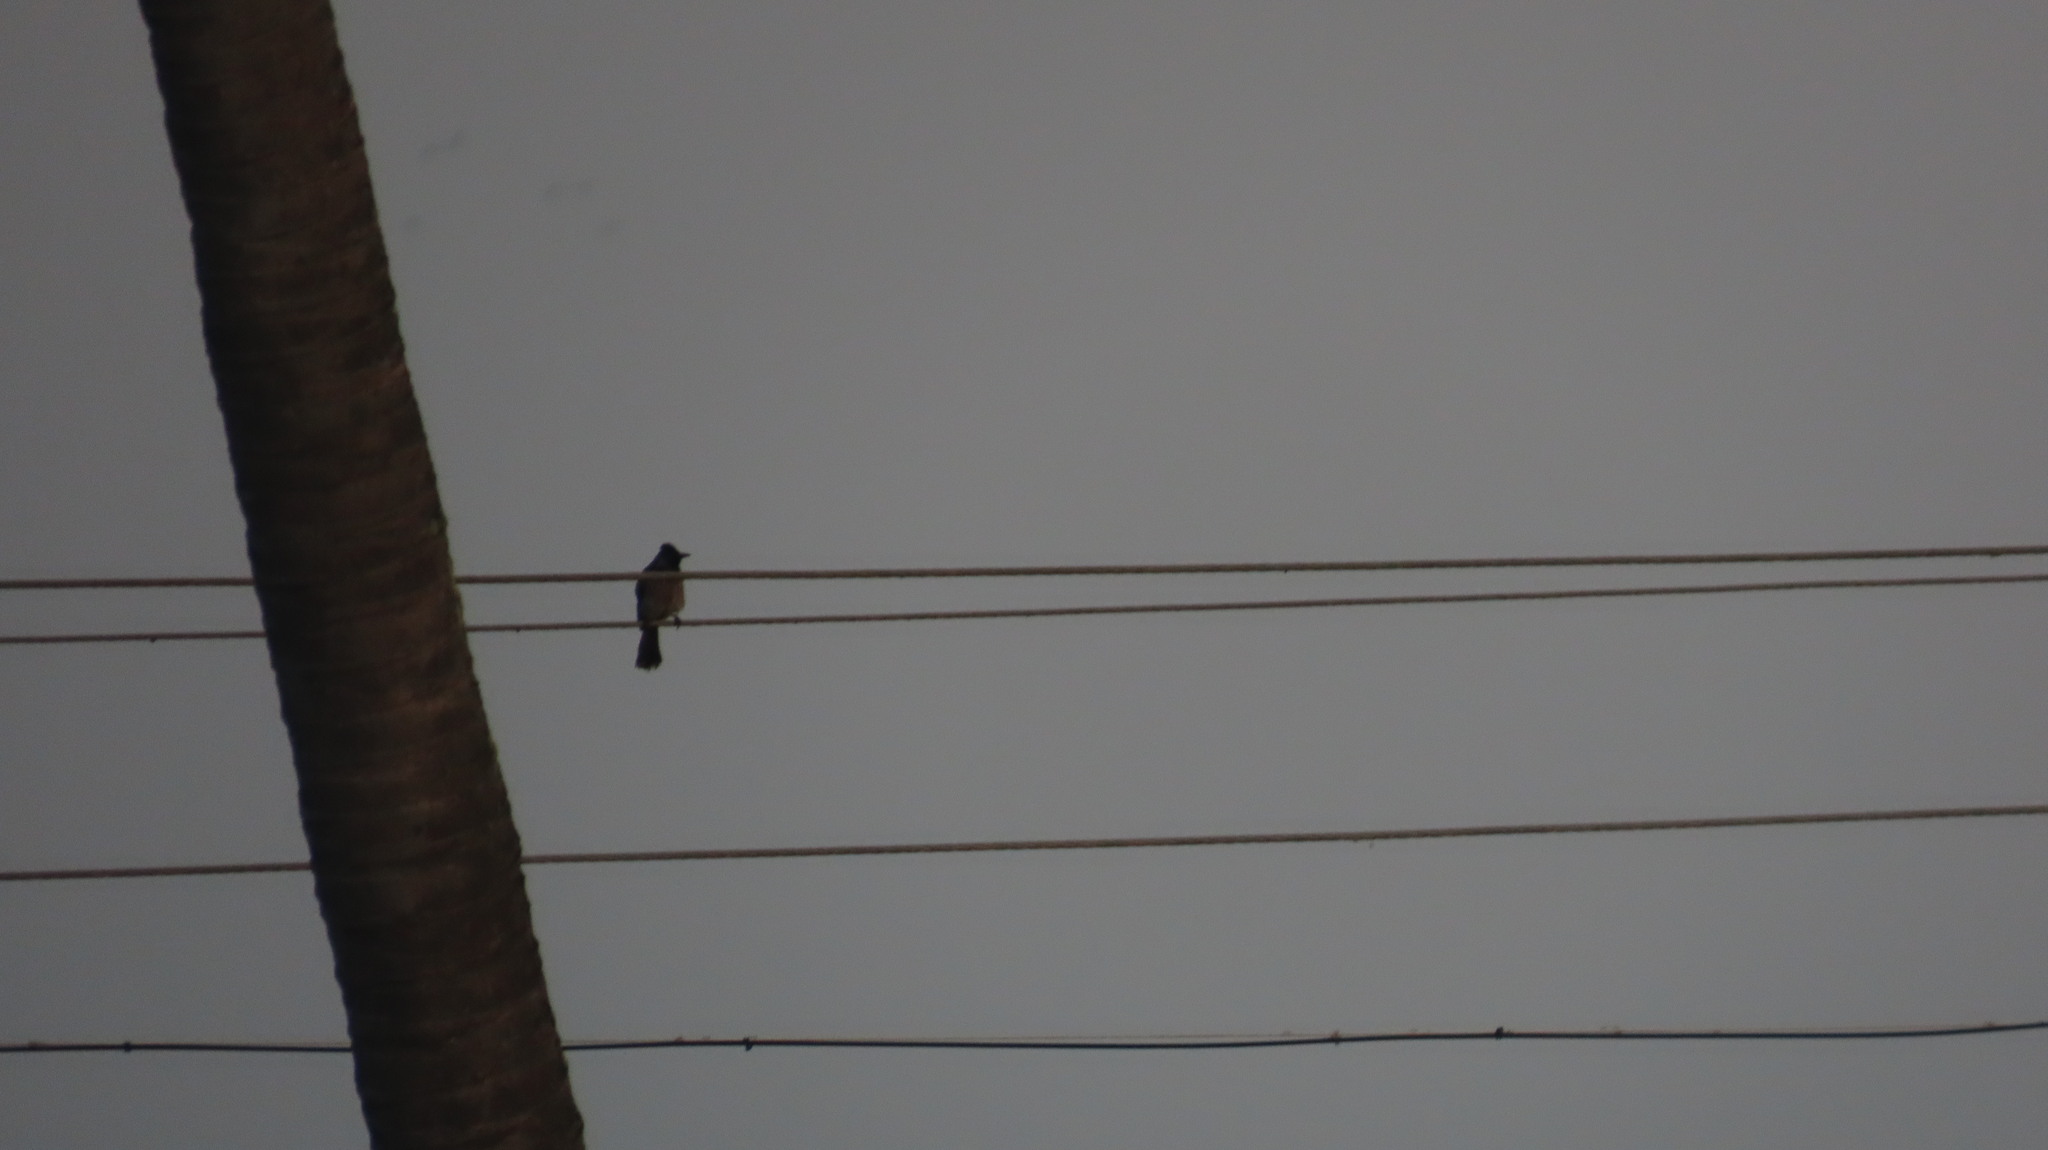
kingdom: Animalia
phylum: Chordata
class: Aves
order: Passeriformes
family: Pycnonotidae
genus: Pycnonotus
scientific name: Pycnonotus cafer
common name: Red-vented bulbul
